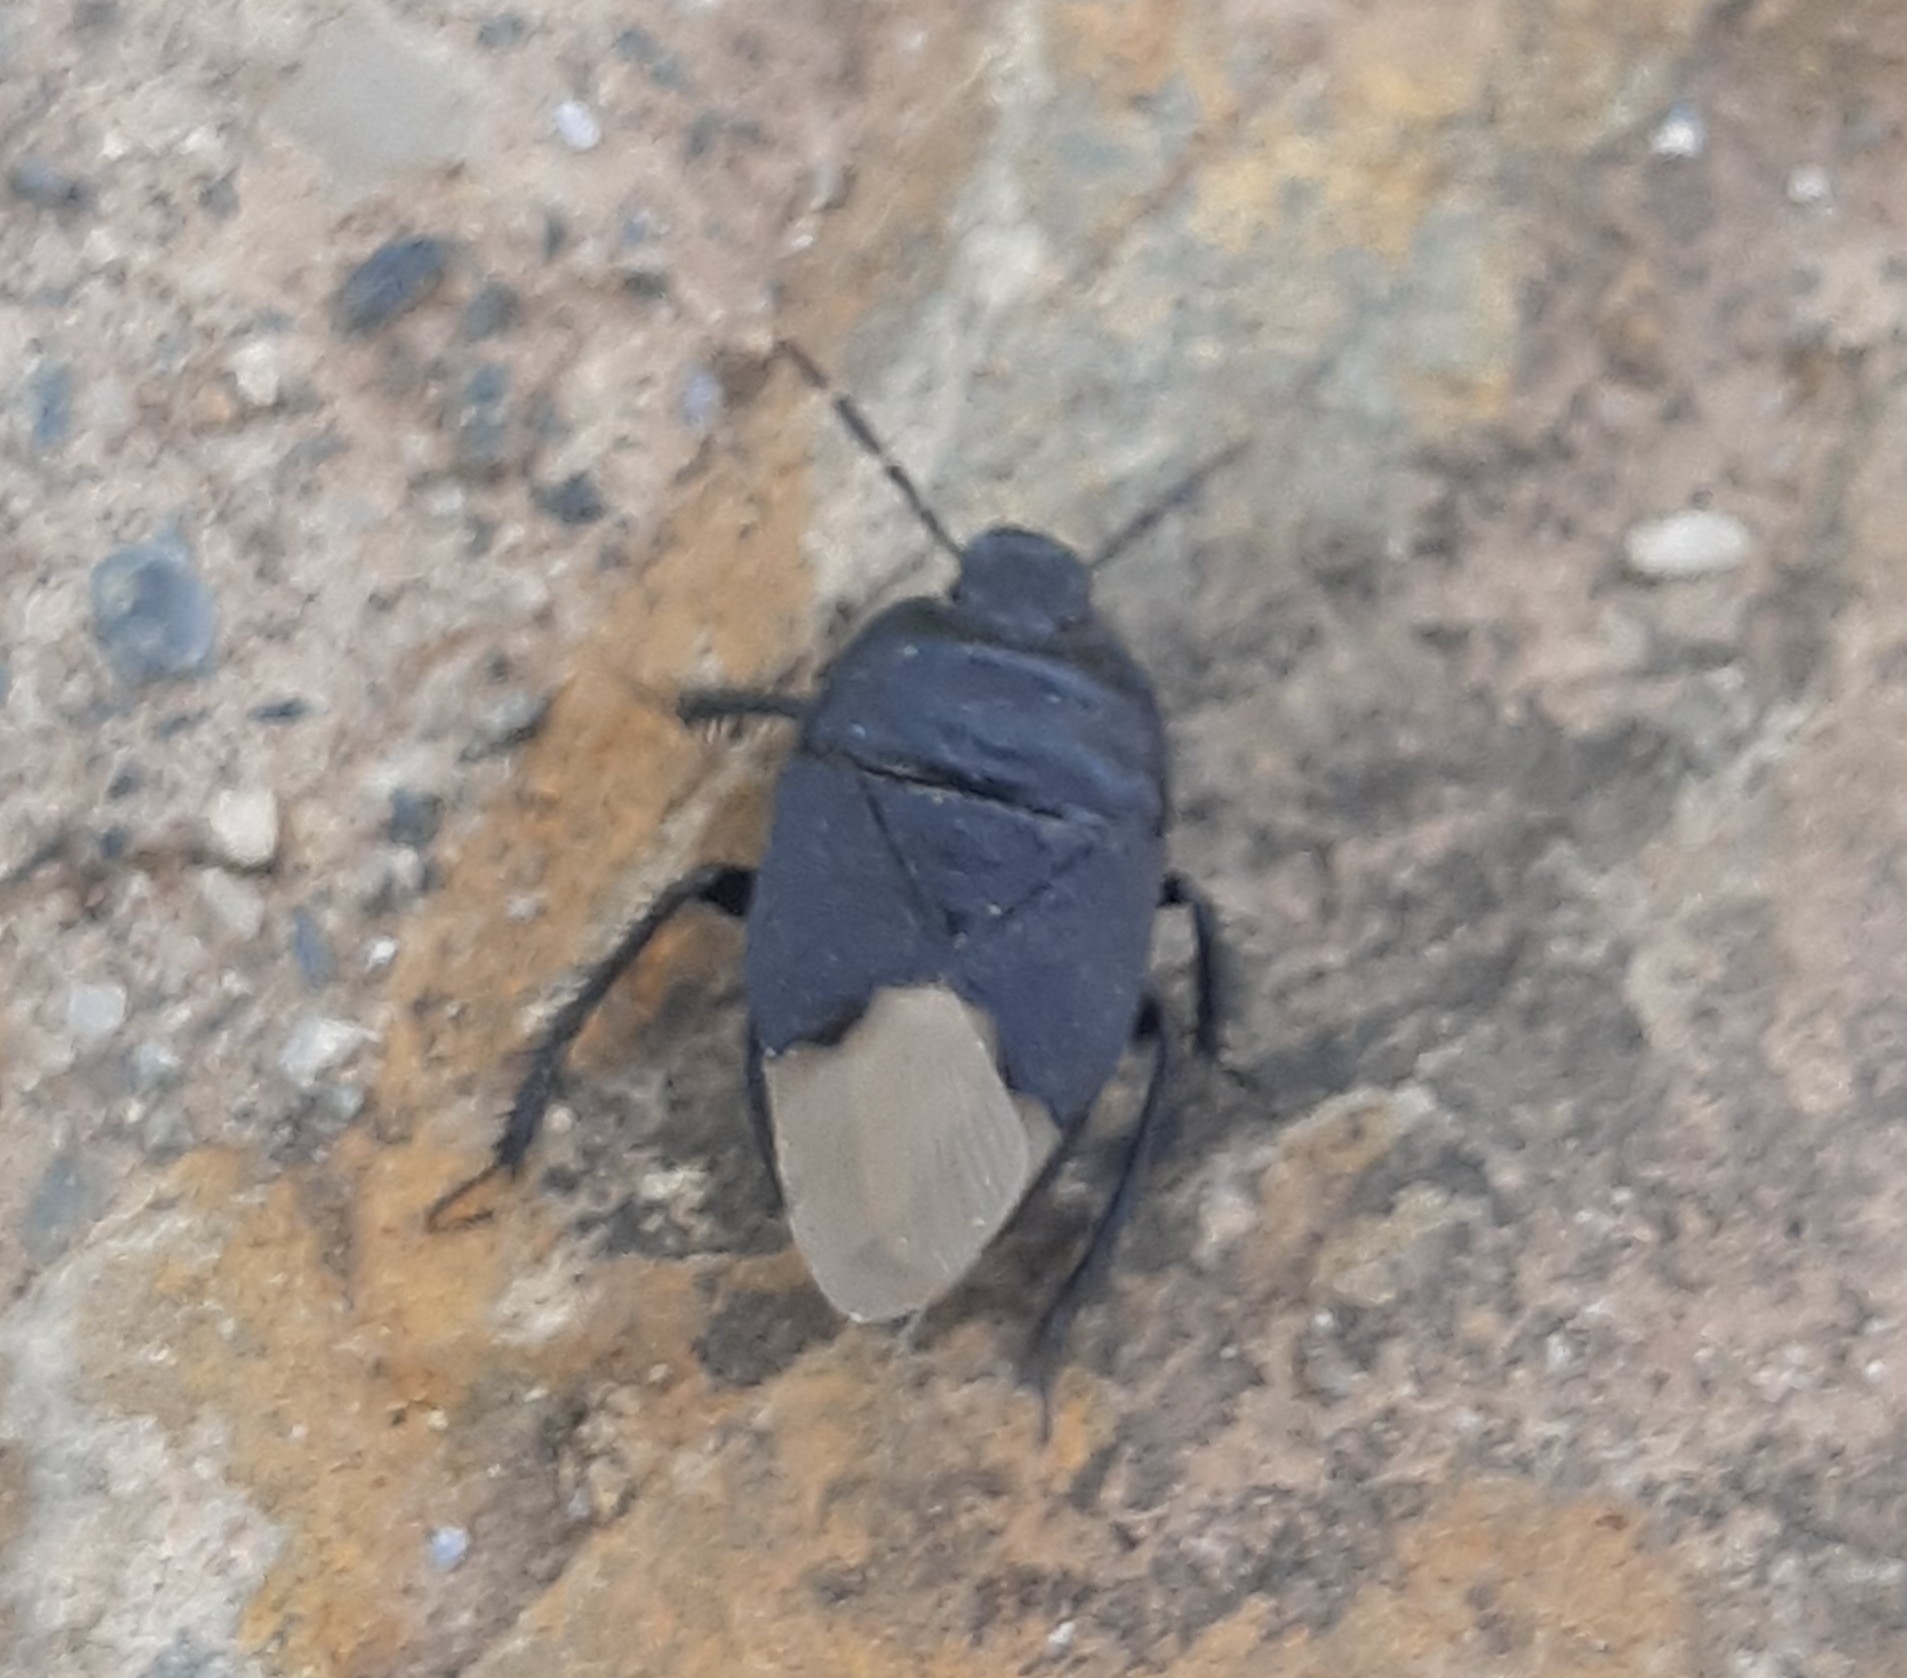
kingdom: Animalia
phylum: Arthropoda
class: Insecta
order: Hemiptera
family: Cydnidae
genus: Cydnus
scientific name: Cydnus aterrimus
